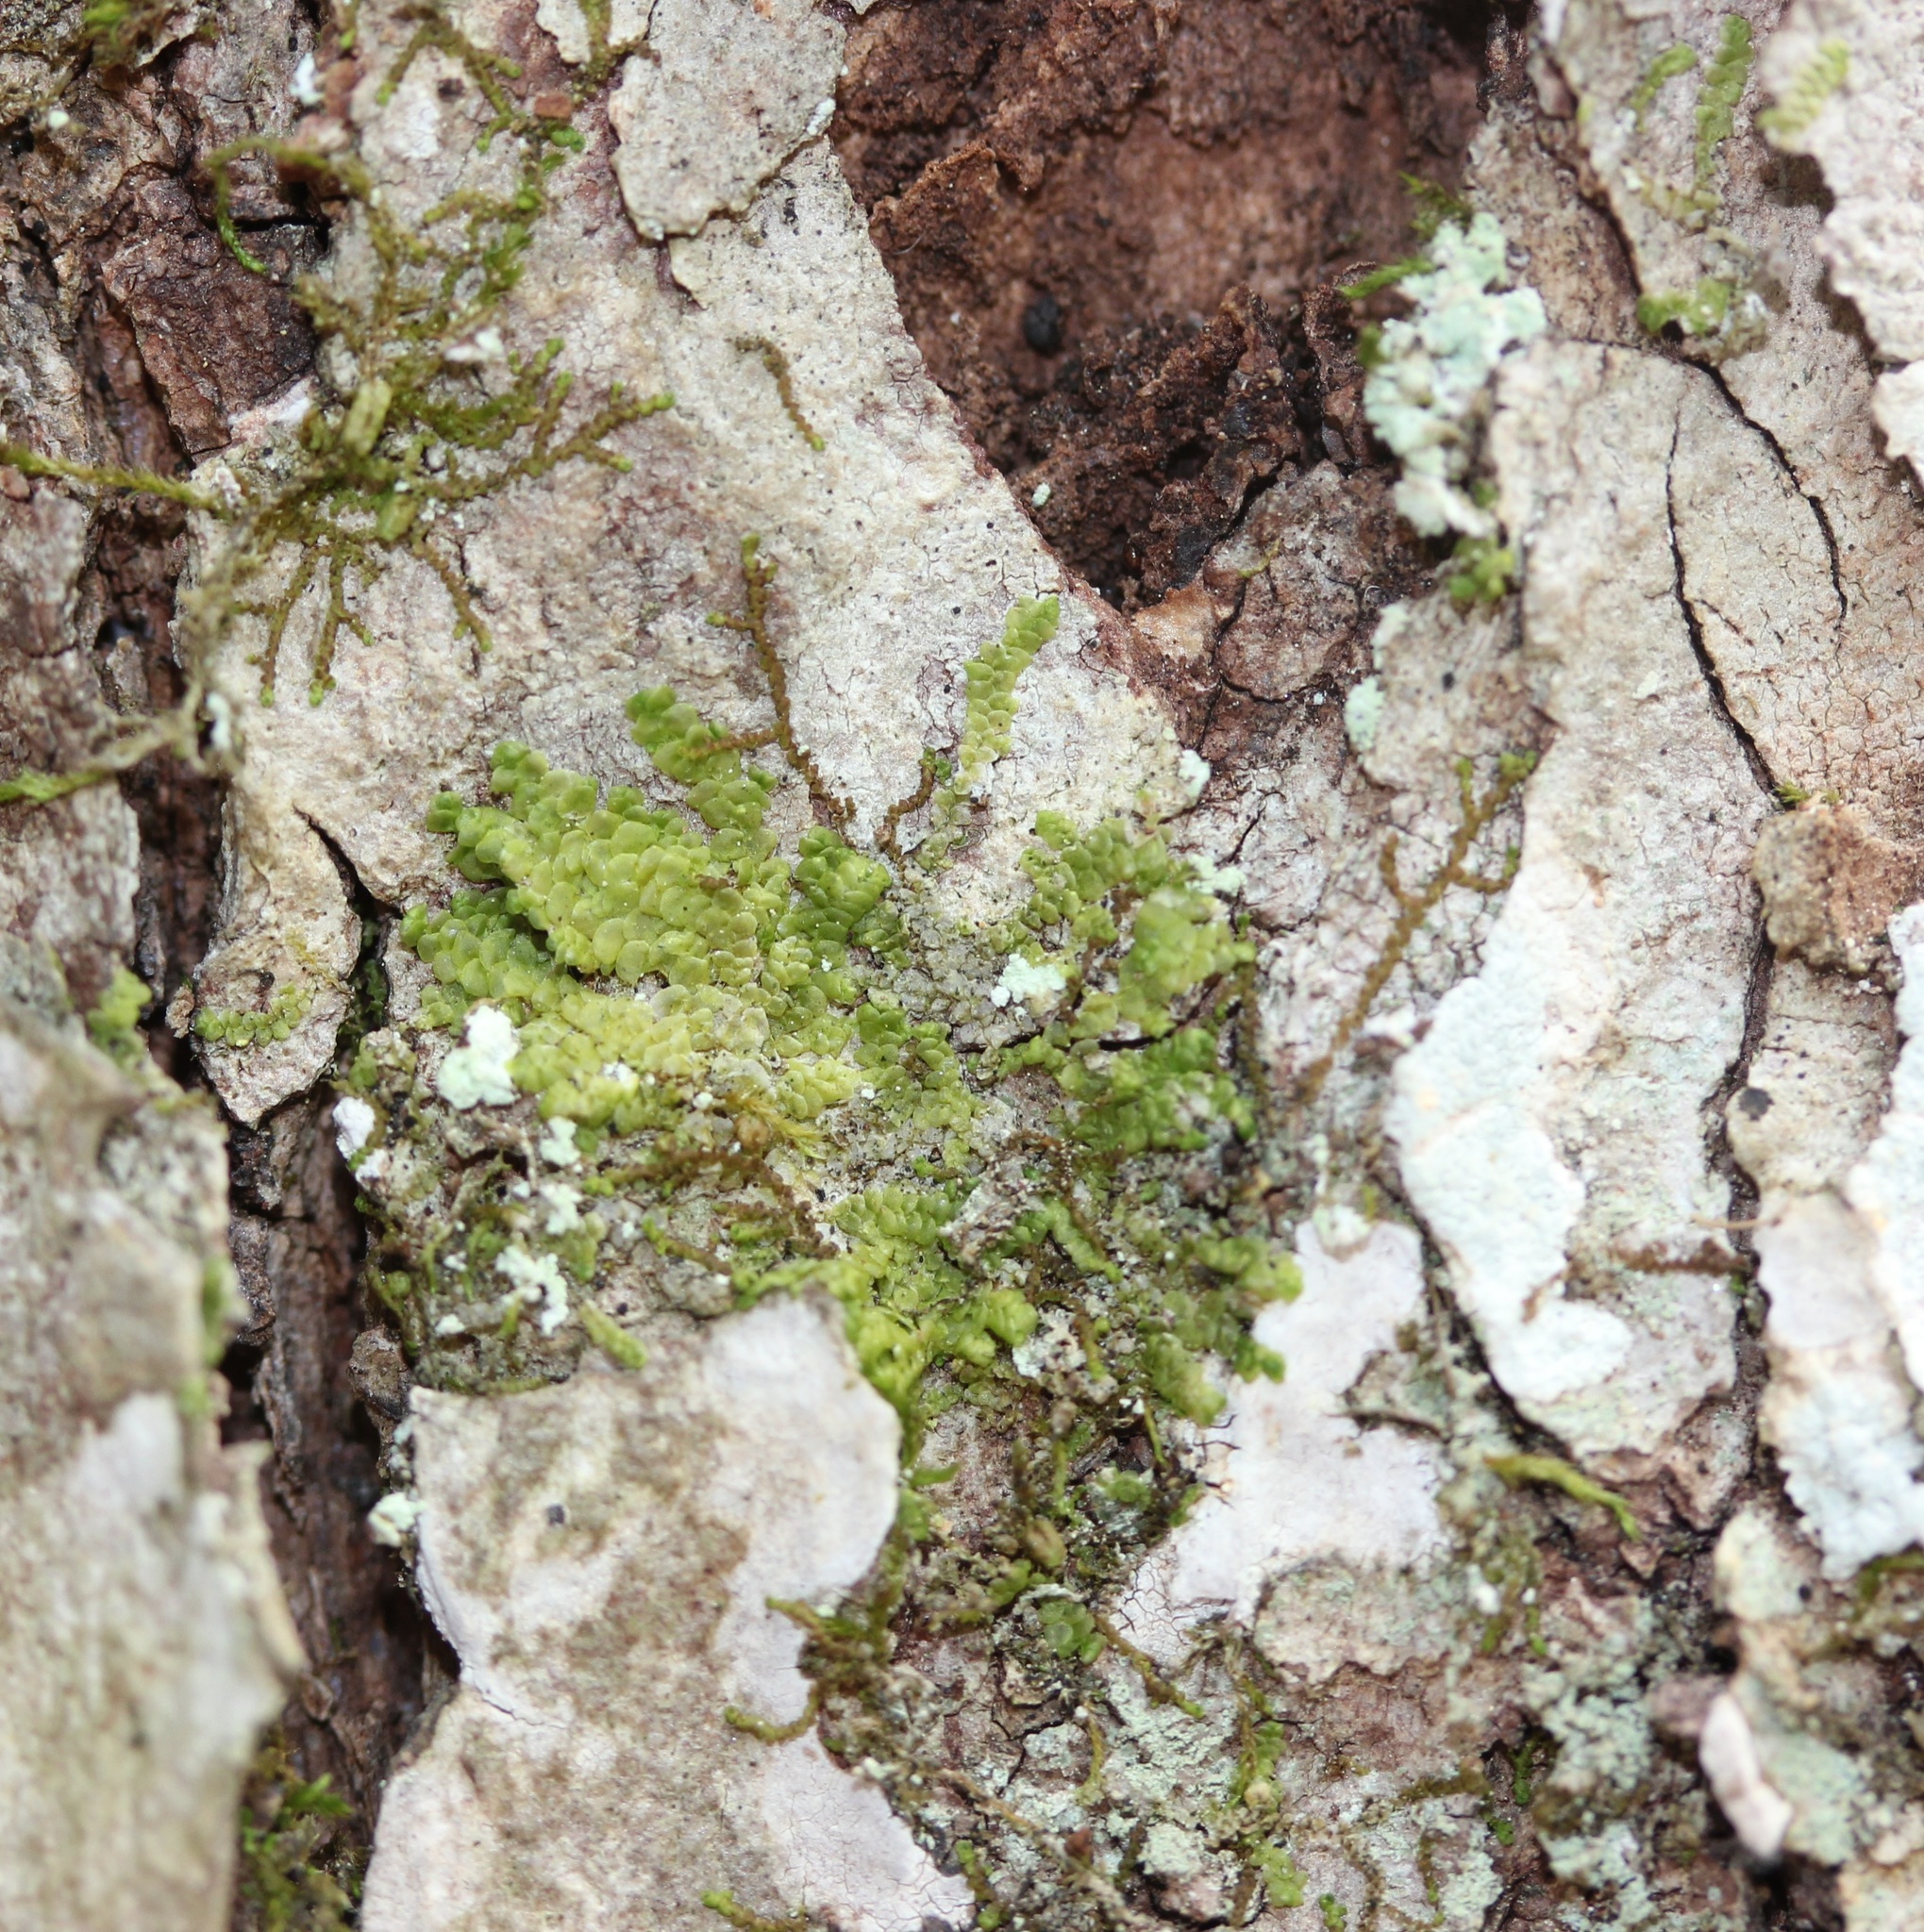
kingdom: Plantae
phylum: Marchantiophyta
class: Jungermanniopsida
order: Porellales
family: Radulaceae
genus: Radula
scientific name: Radula complanata
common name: Flat-leaved scalewort
